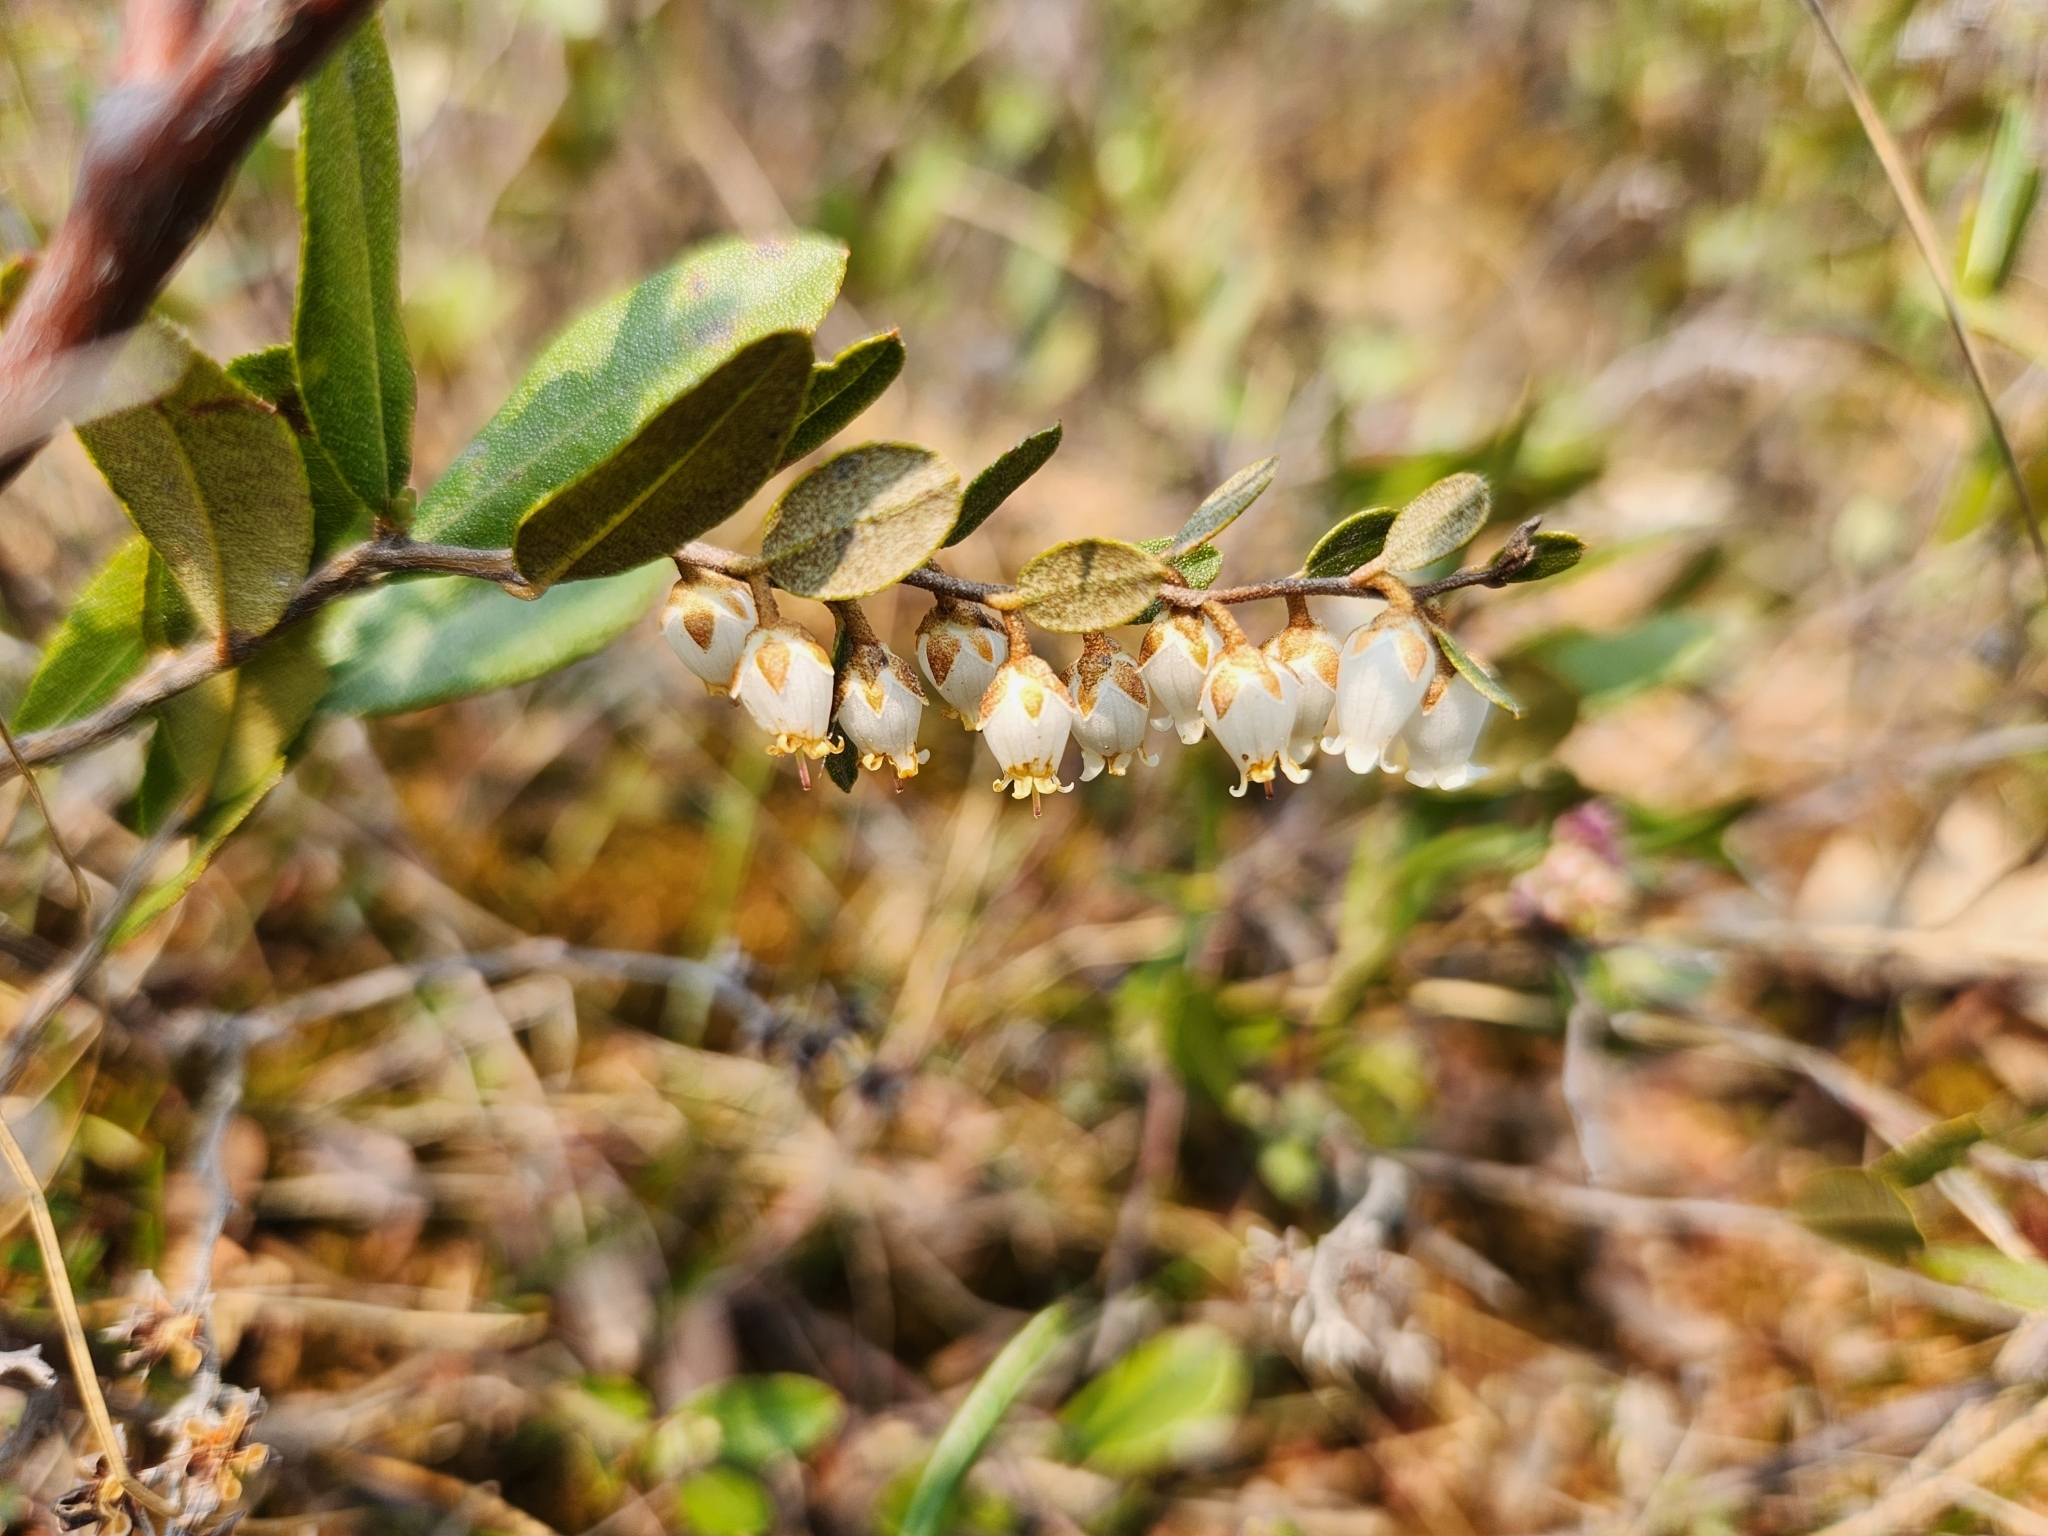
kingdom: Plantae
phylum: Tracheophyta
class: Magnoliopsida
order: Ericales
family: Ericaceae
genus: Chamaedaphne
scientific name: Chamaedaphne calyculata
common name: Leatherleaf
